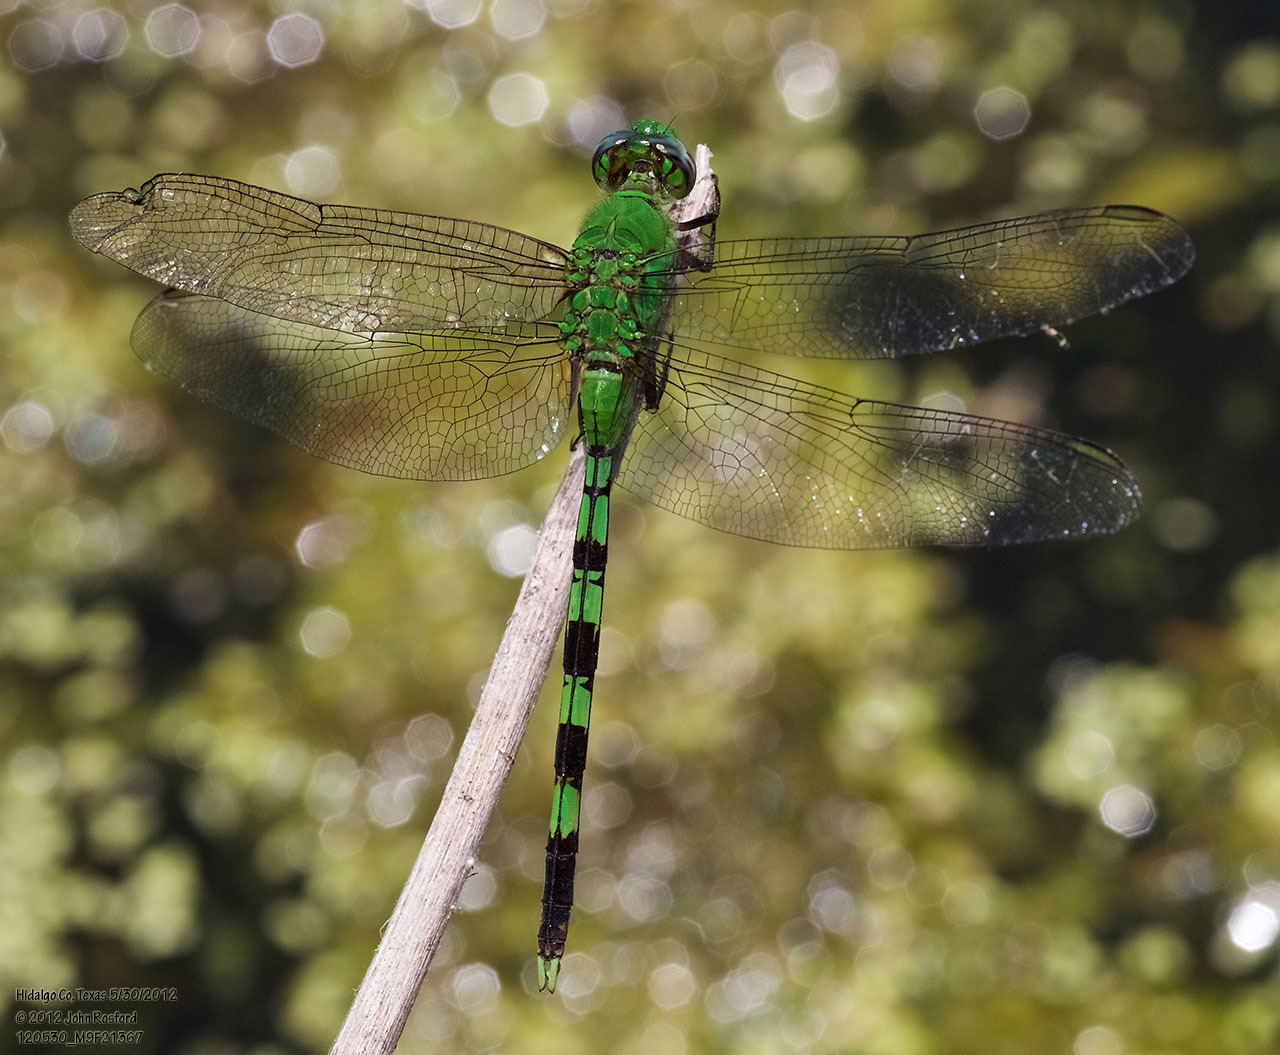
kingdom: Animalia
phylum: Arthropoda
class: Insecta
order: Odonata
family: Libellulidae
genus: Erythemis
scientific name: Erythemis vesiculosa
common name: Great pondhawk
